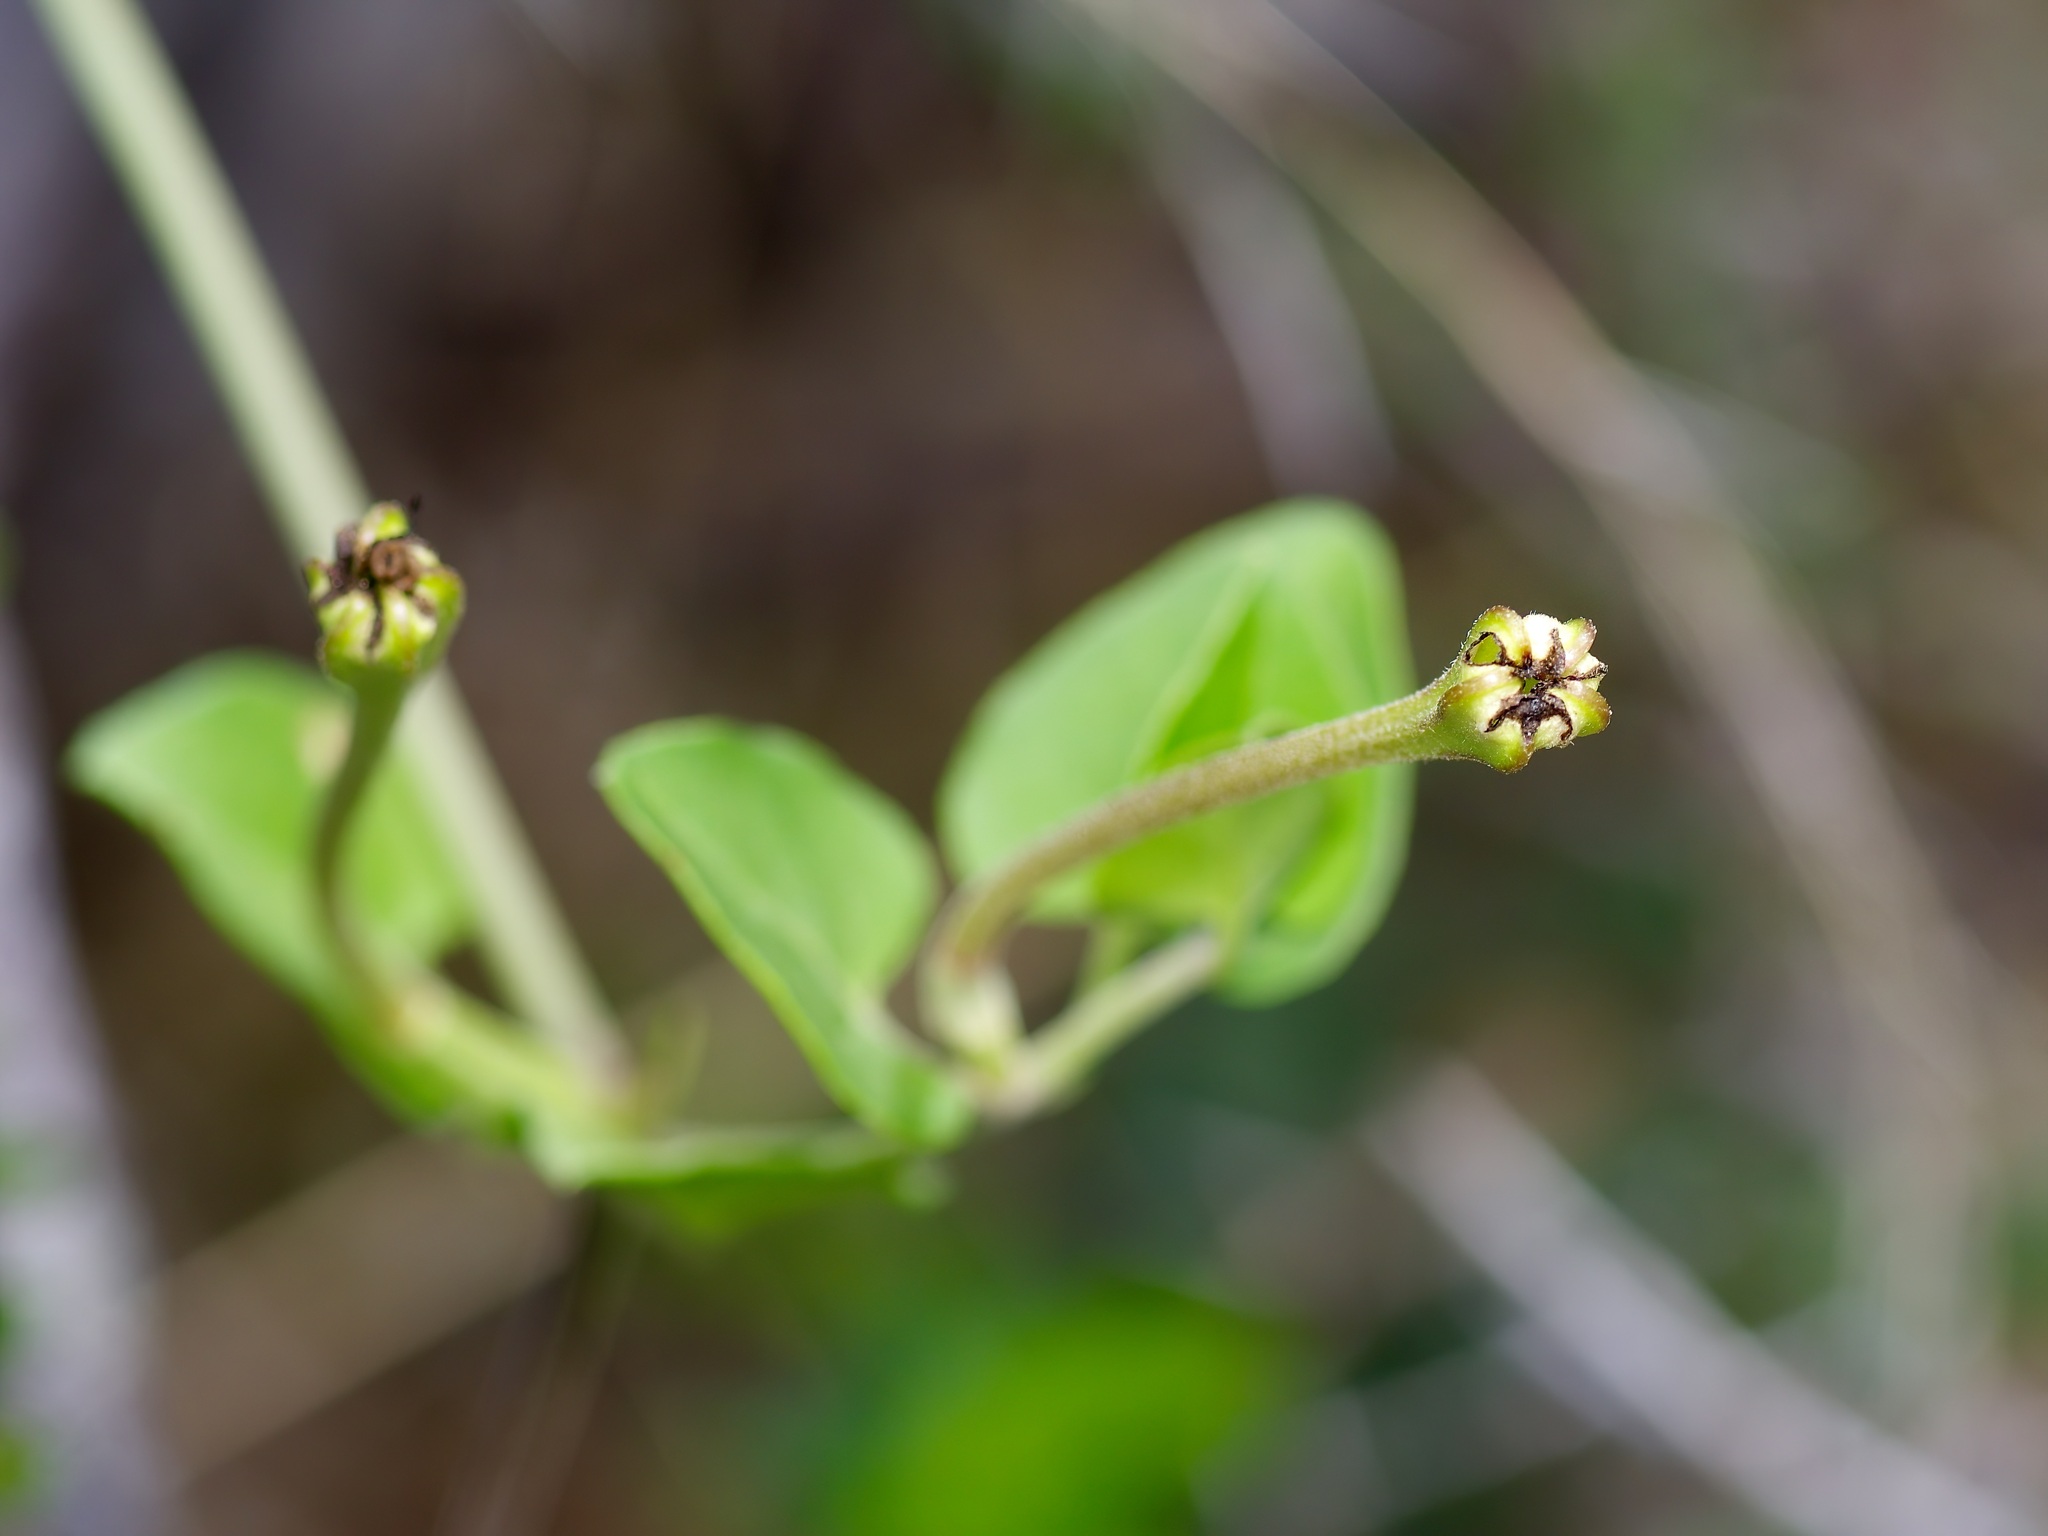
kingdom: Plantae
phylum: Tracheophyta
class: Magnoliopsida
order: Caryophyllales
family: Nyctaginaceae
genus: Acleisanthes
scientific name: Acleisanthes obtusa
